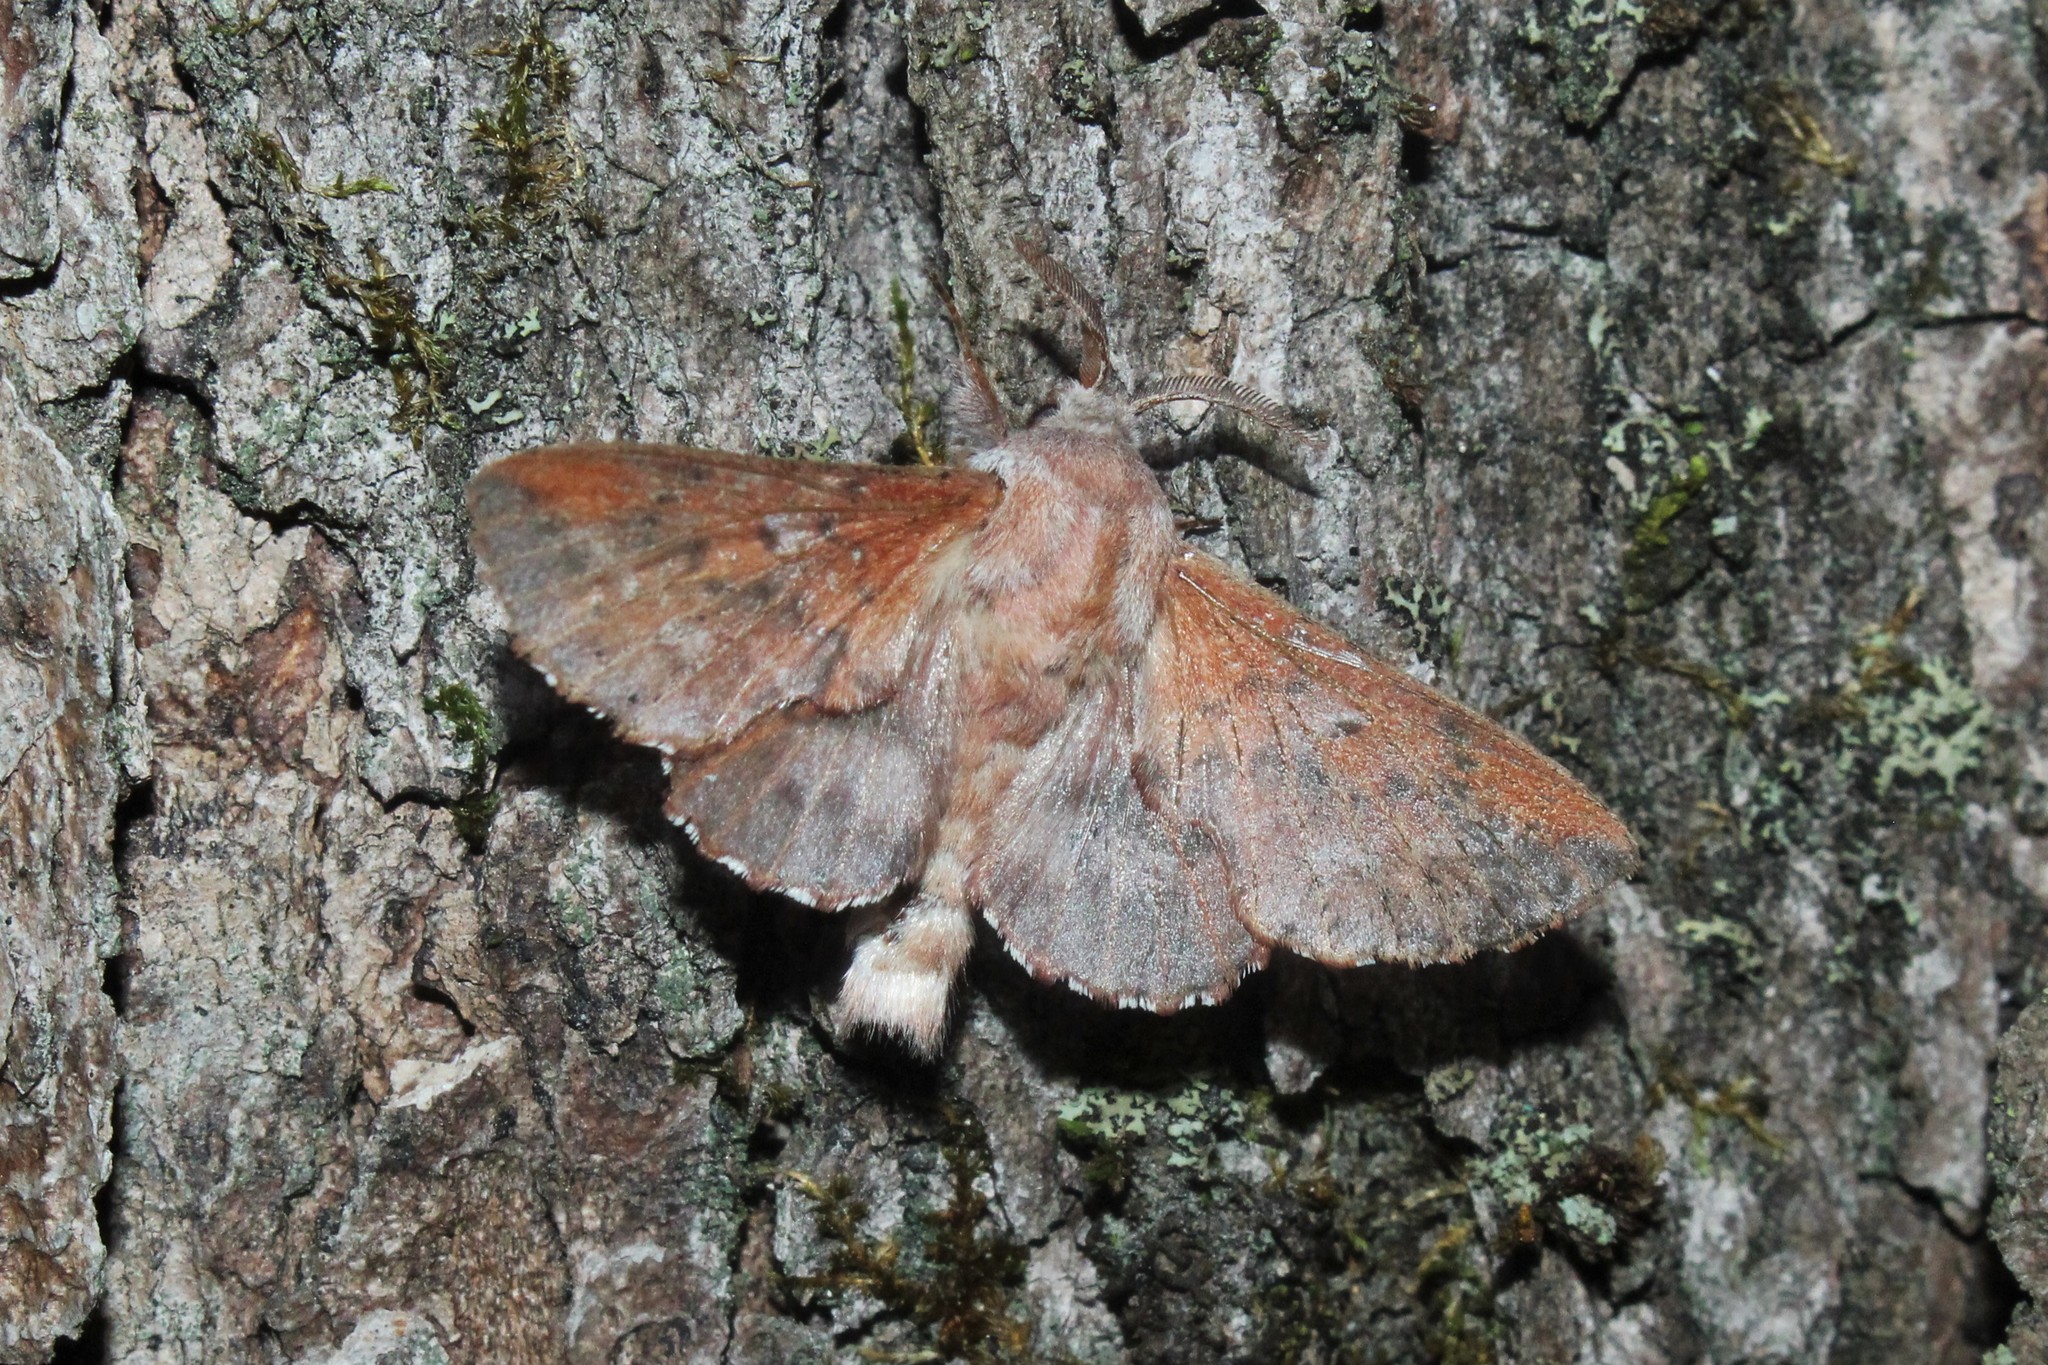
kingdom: Animalia
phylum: Arthropoda
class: Insecta
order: Lepidoptera
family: Lasiocampidae
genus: Phyllodesma
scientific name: Phyllodesma americana
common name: American lappet moth
